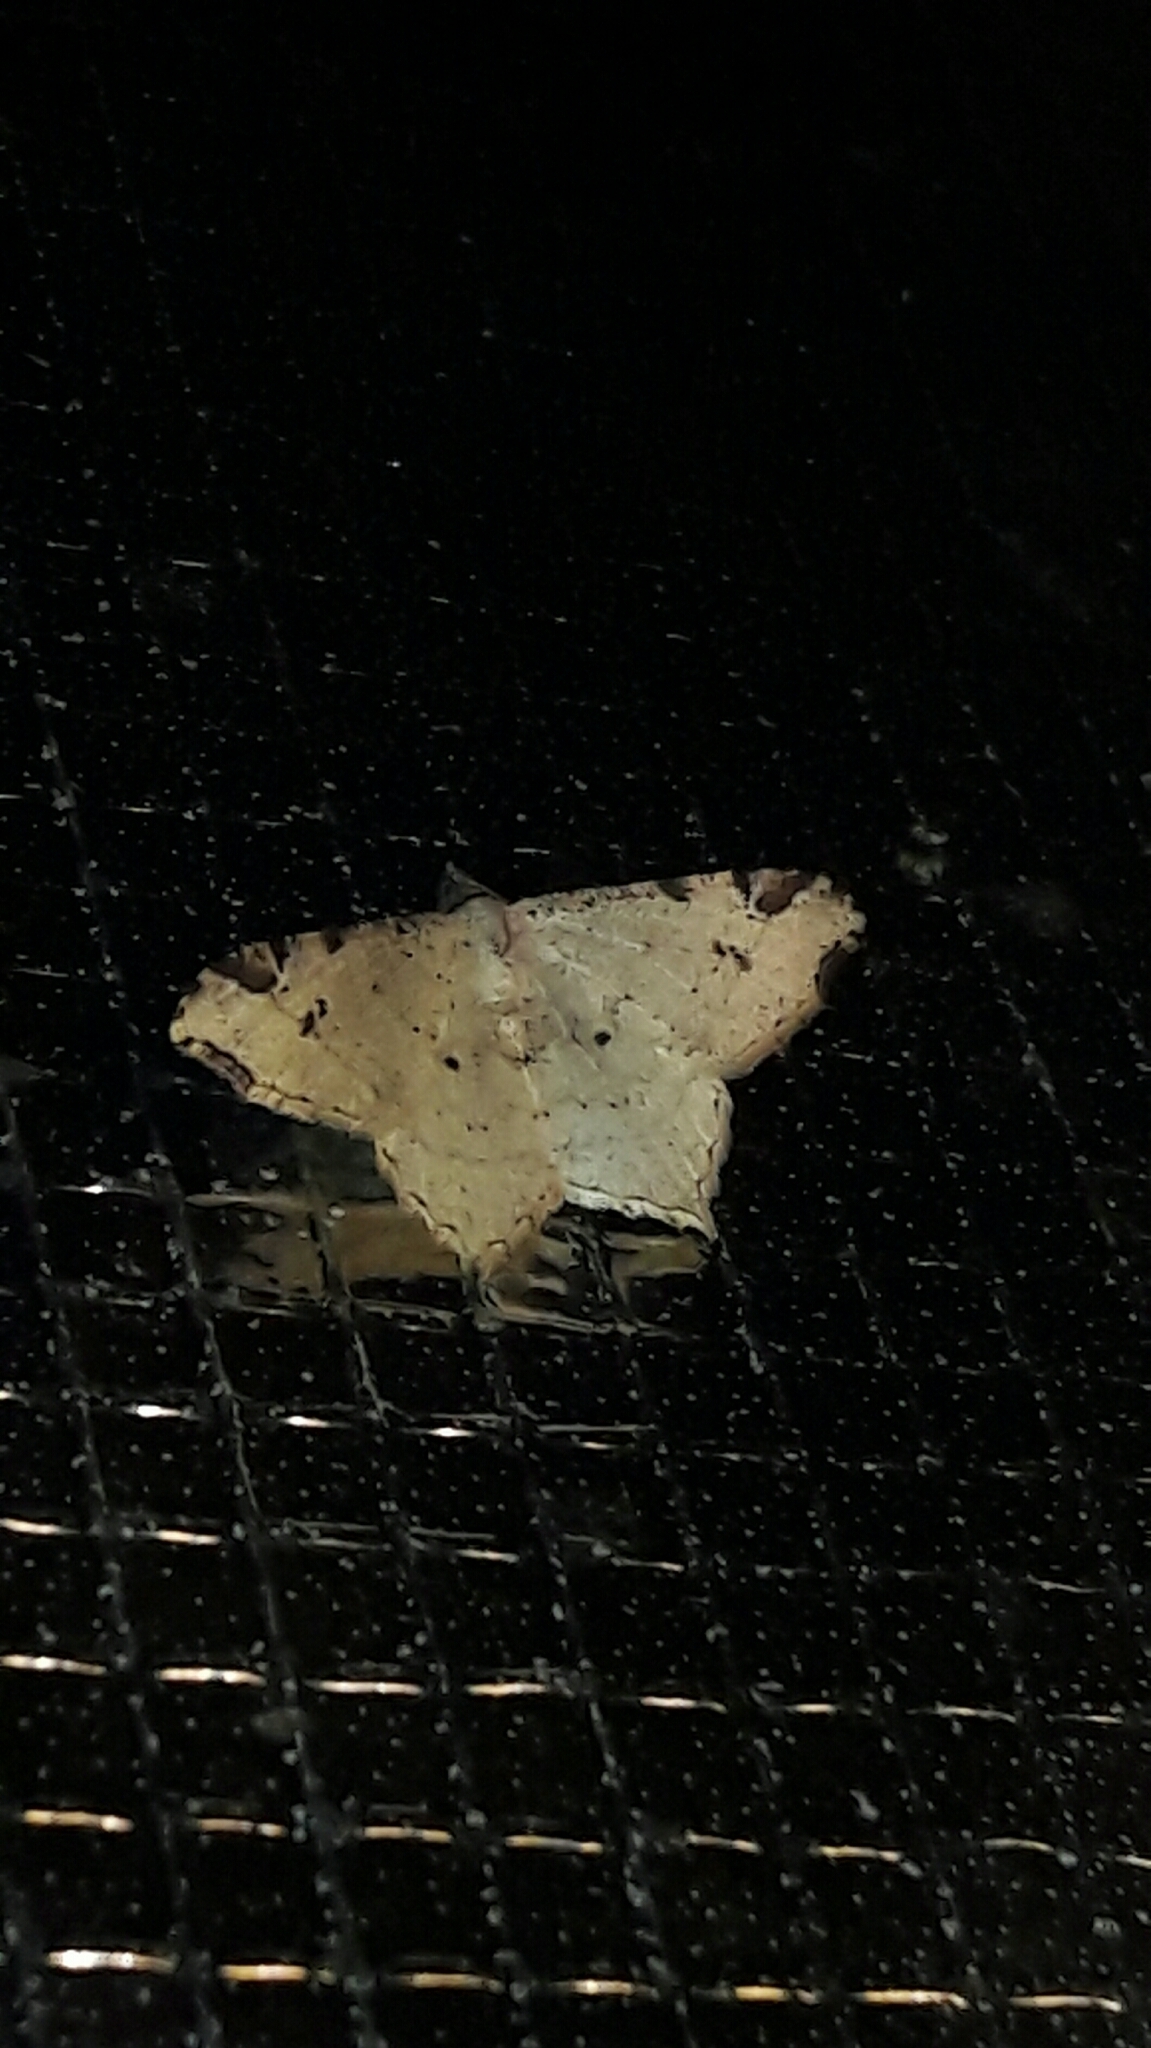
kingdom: Animalia
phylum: Arthropoda
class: Insecta
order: Lepidoptera
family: Geometridae
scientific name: Geometridae
